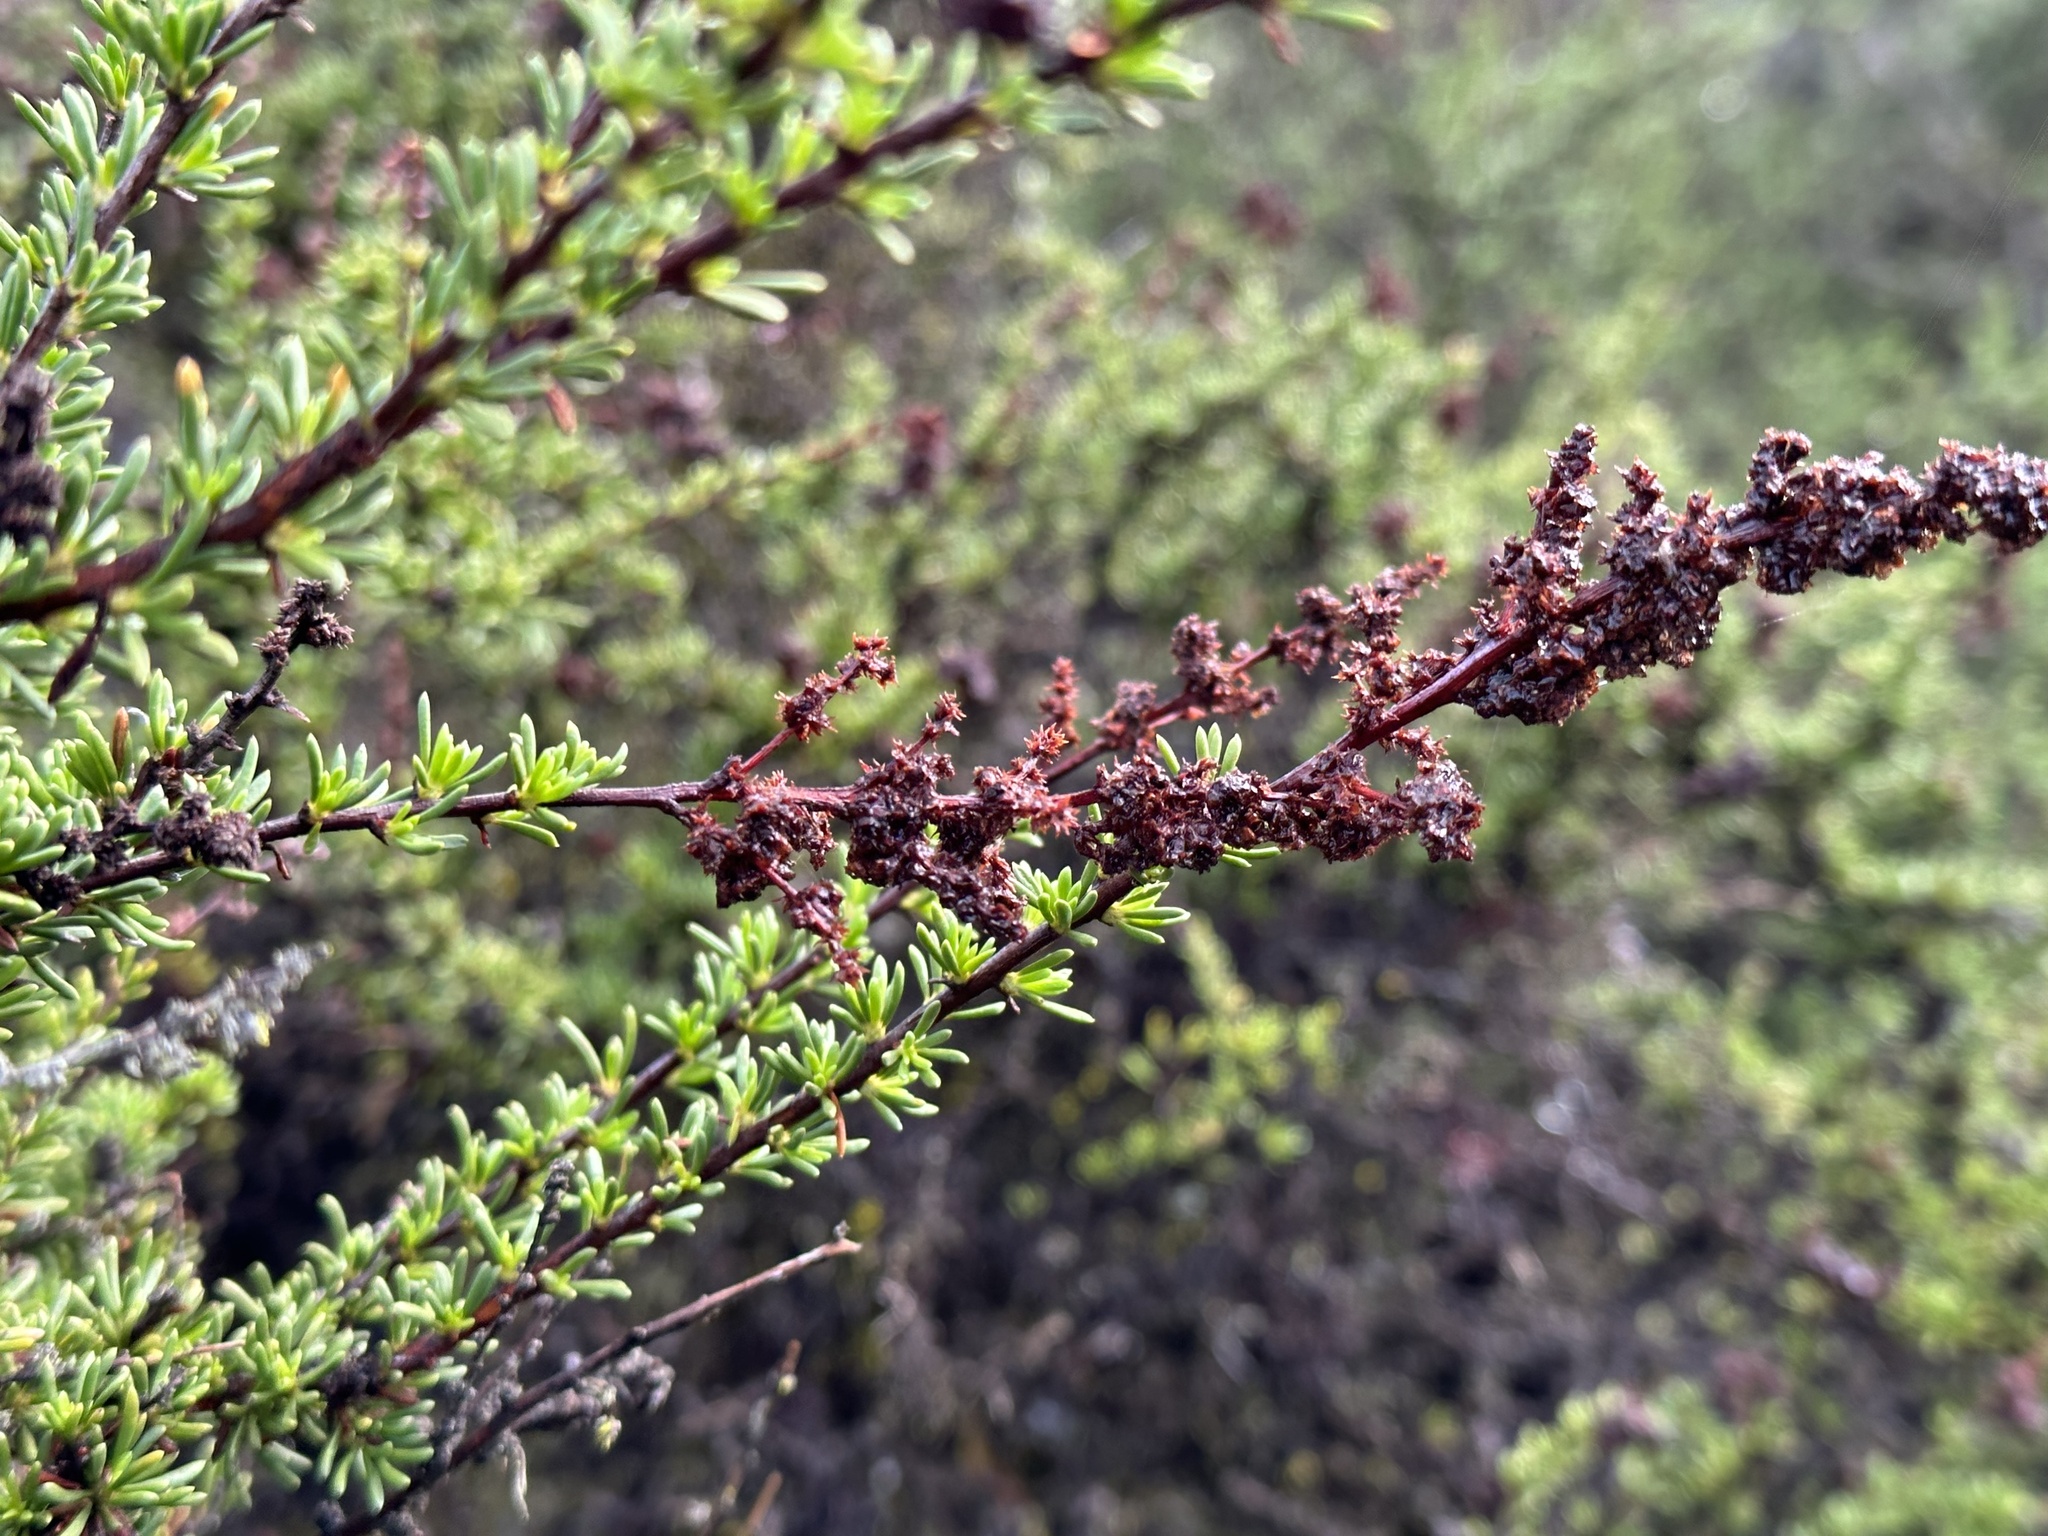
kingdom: Plantae
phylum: Tracheophyta
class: Magnoliopsida
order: Rosales
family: Rosaceae
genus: Adenostoma
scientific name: Adenostoma fasciculatum
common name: Chamise
